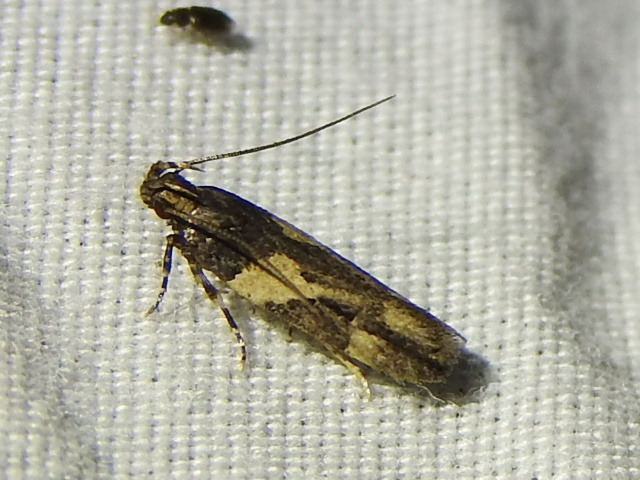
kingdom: Animalia
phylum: Arthropoda
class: Insecta
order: Lepidoptera
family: Gelechiidae
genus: Friseria
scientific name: Friseria acaciella
